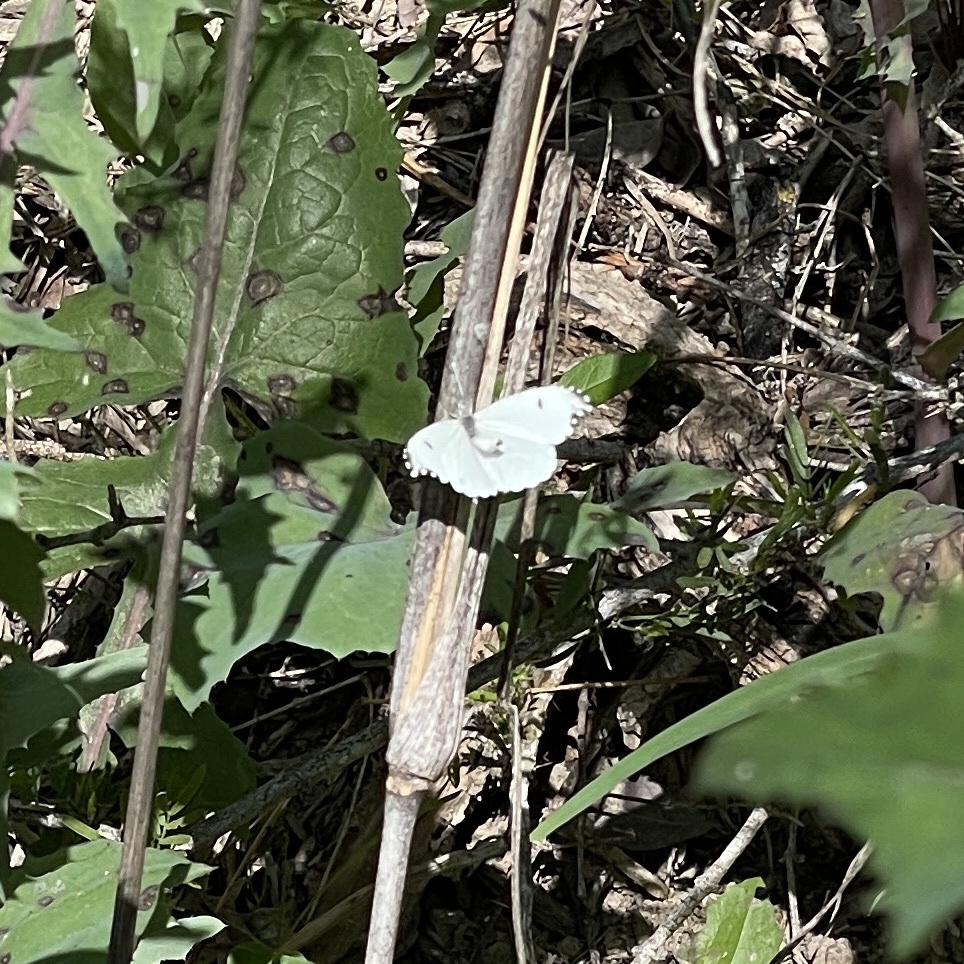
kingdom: Animalia
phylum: Arthropoda
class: Insecta
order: Lepidoptera
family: Pieridae
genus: Anthocharis
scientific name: Anthocharis midea
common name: Falcate orangetip
